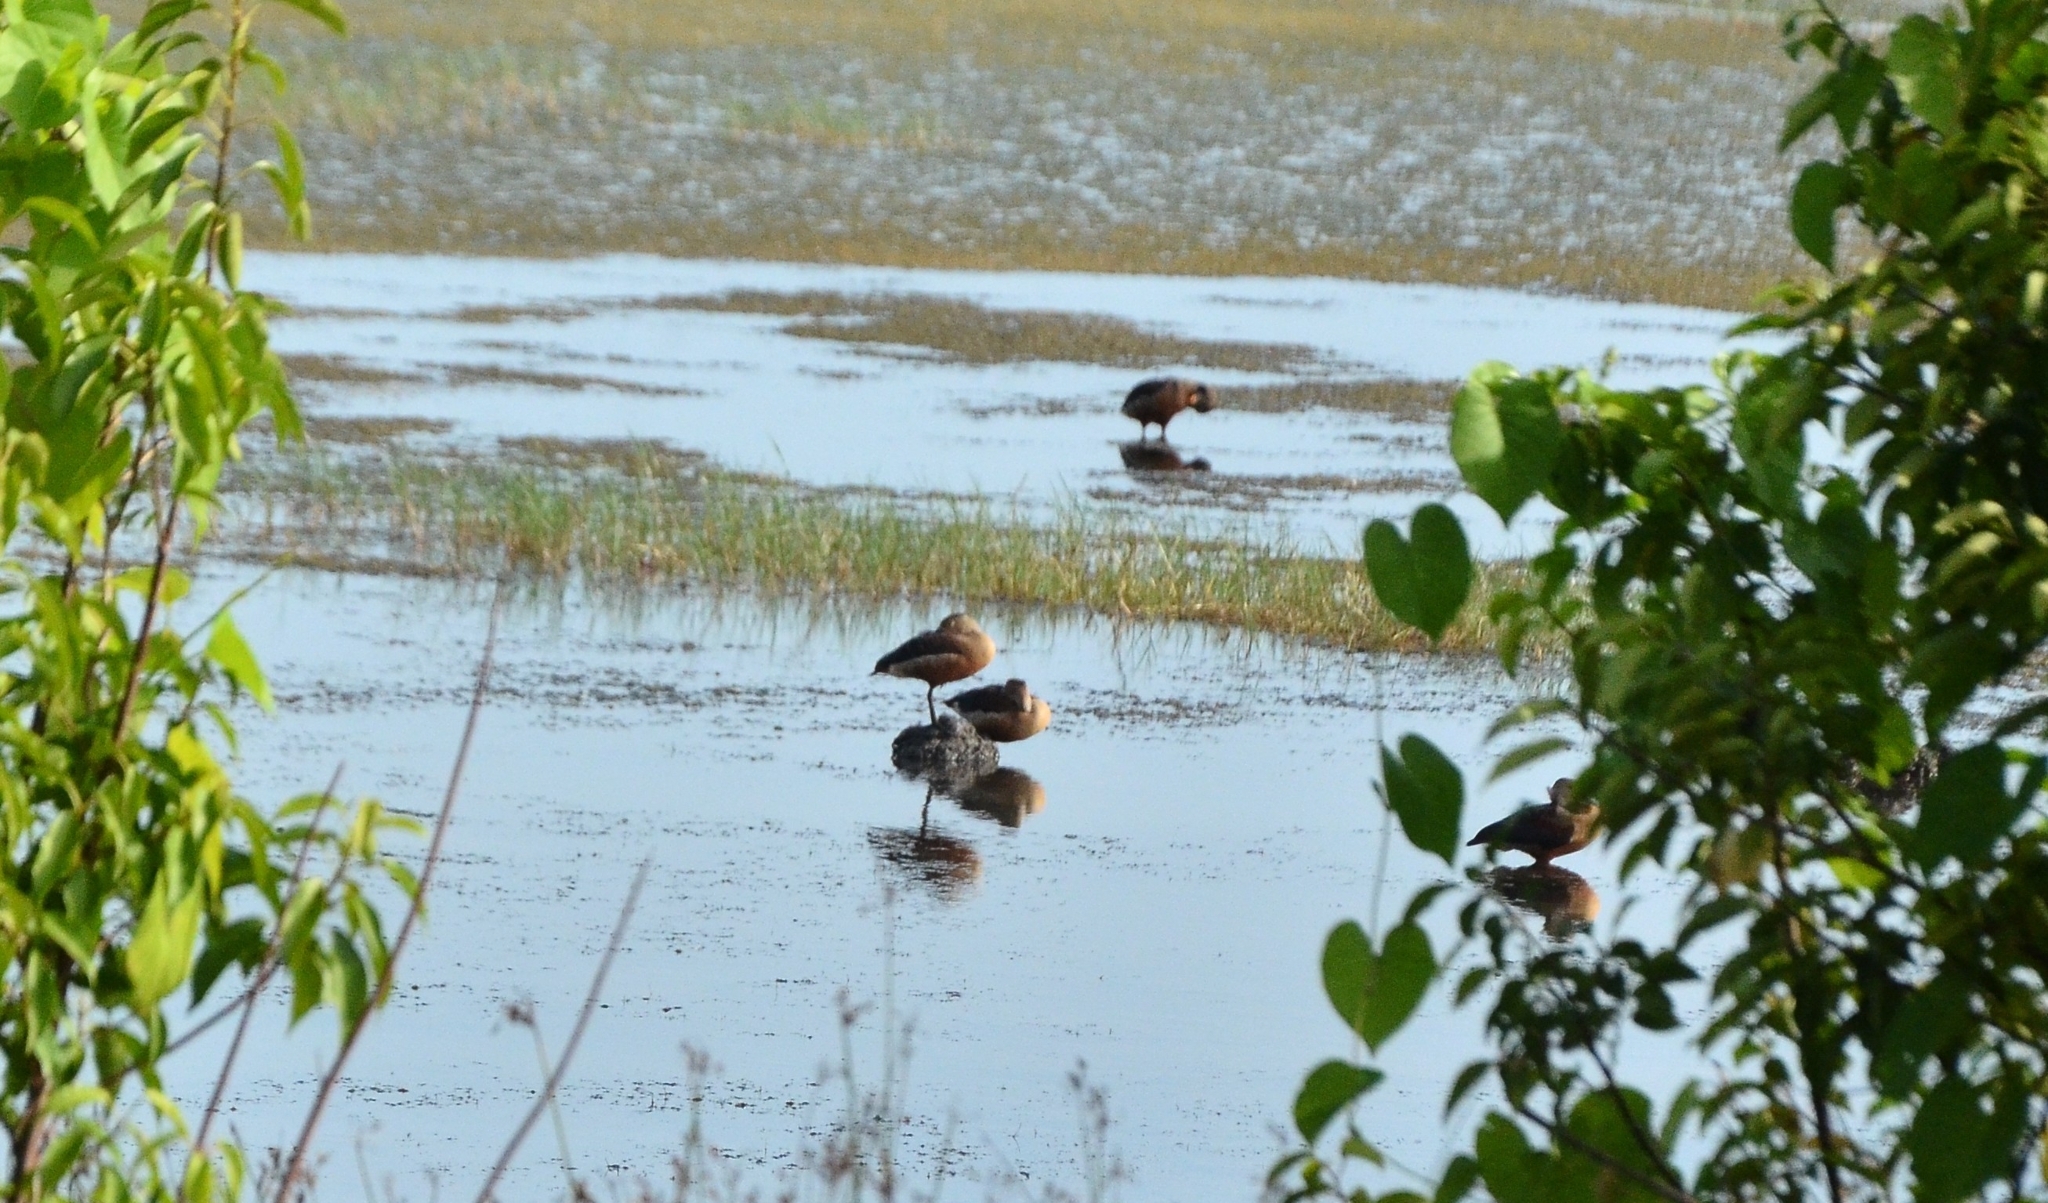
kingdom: Animalia
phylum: Chordata
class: Aves
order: Anseriformes
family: Anatidae
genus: Dendrocygna
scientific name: Dendrocygna javanica
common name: Lesser whistling-duck
